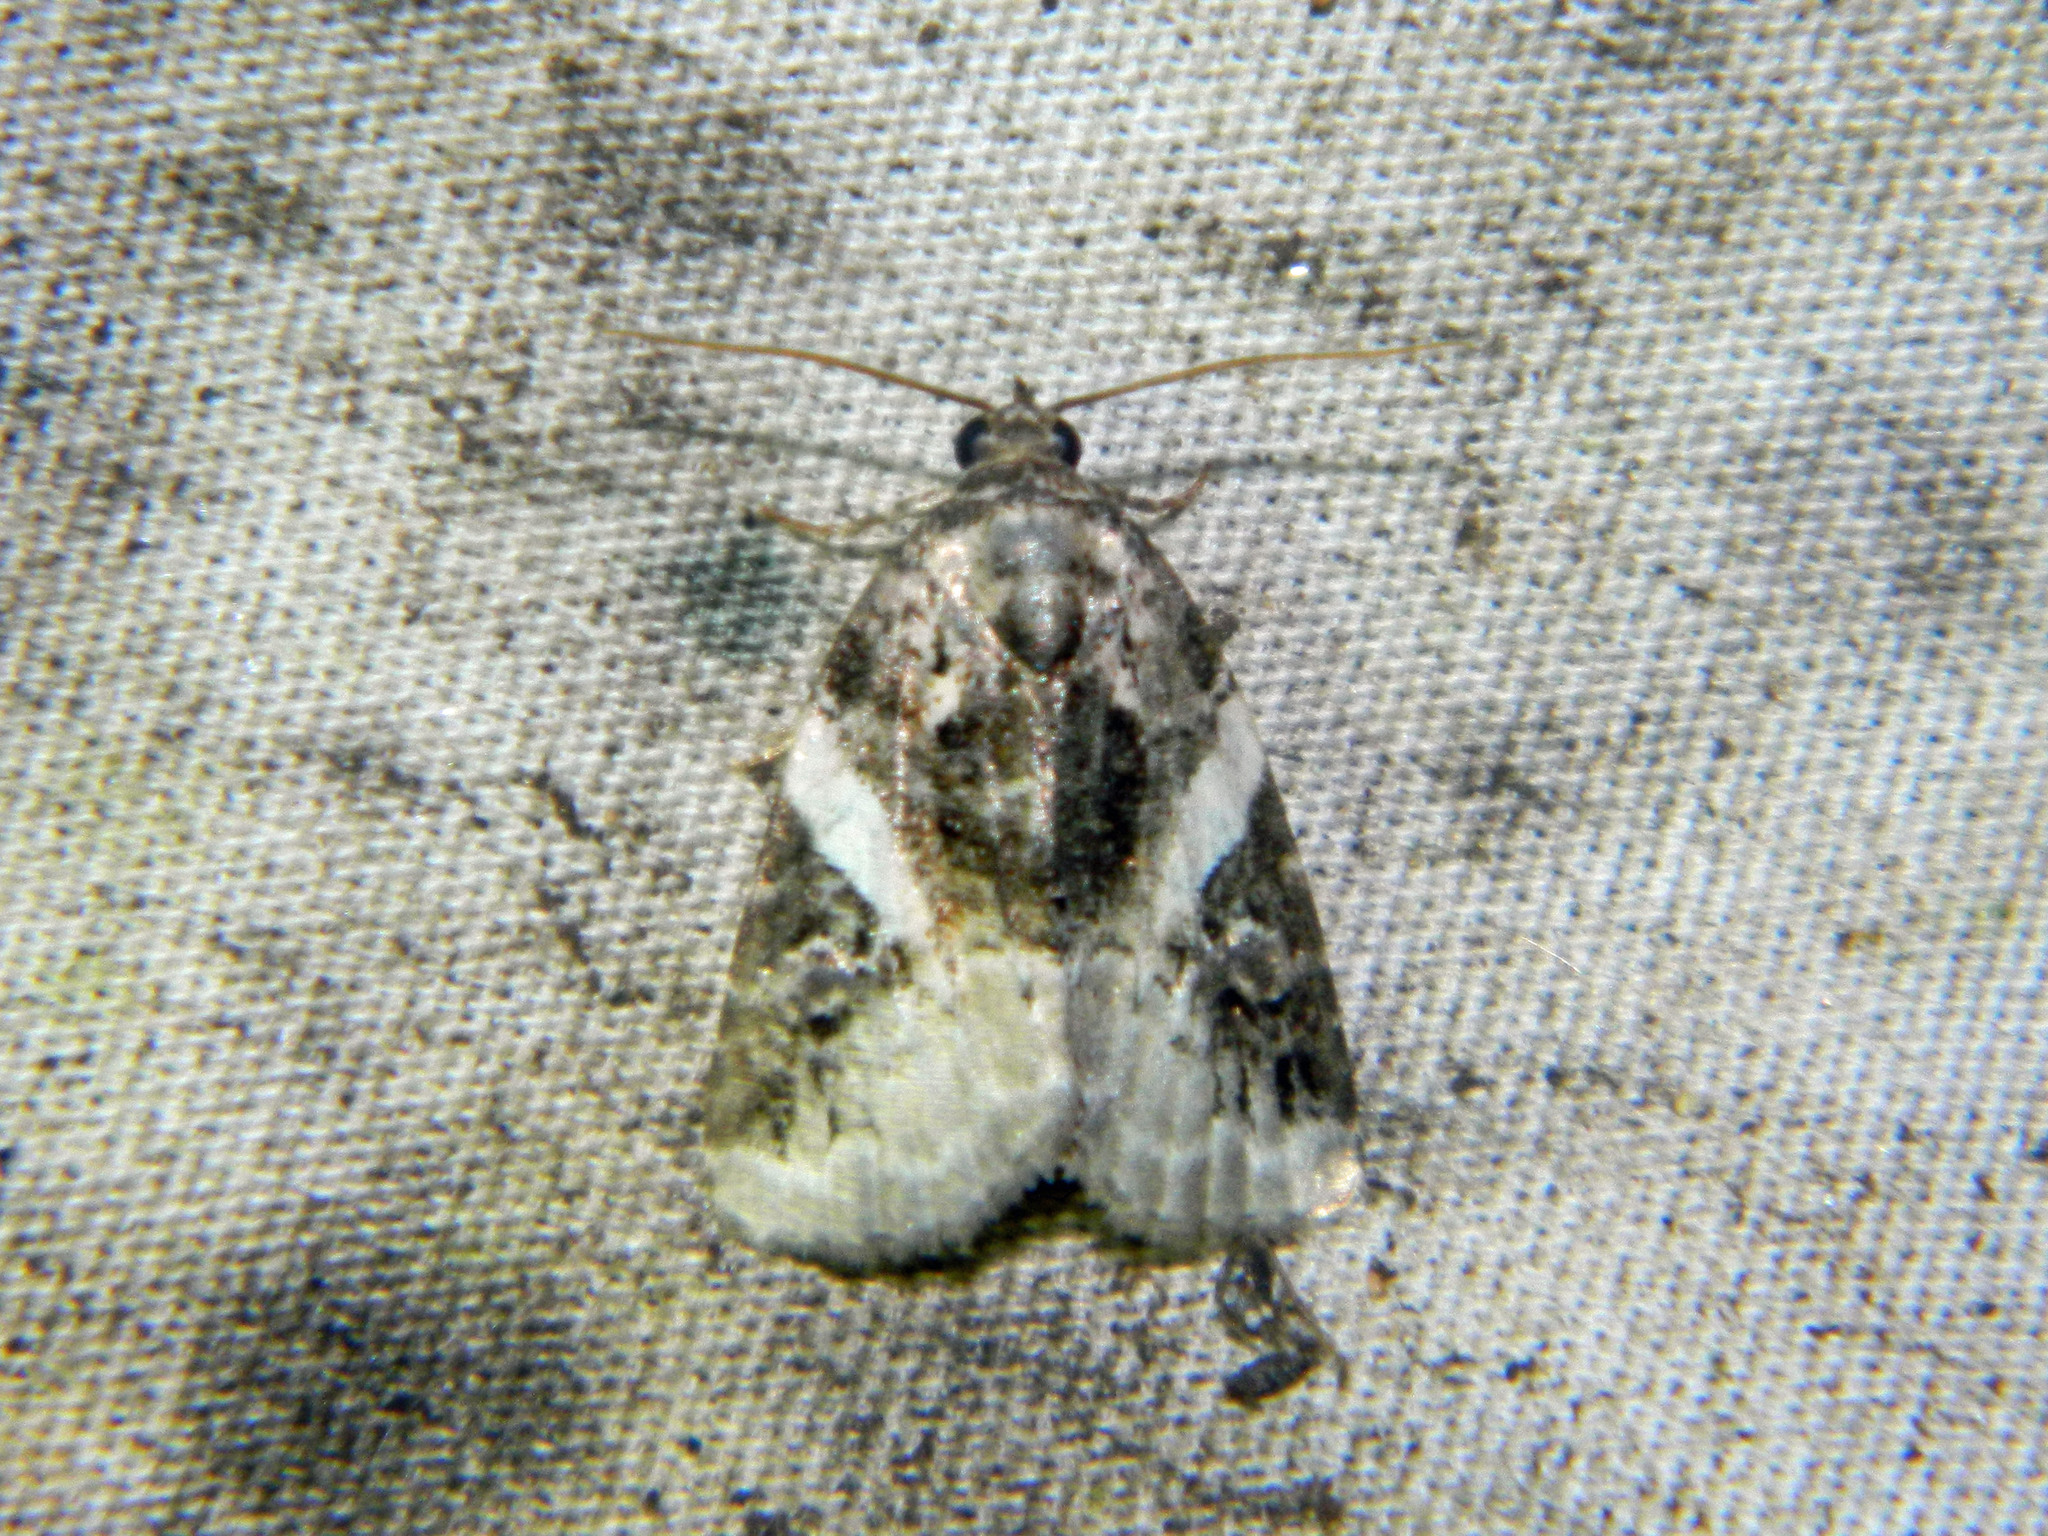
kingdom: Animalia
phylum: Arthropoda
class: Insecta
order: Lepidoptera
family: Noctuidae
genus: Pseudeustrotia
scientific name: Pseudeustrotia carneola
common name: Pink-barred lithacodia moth
